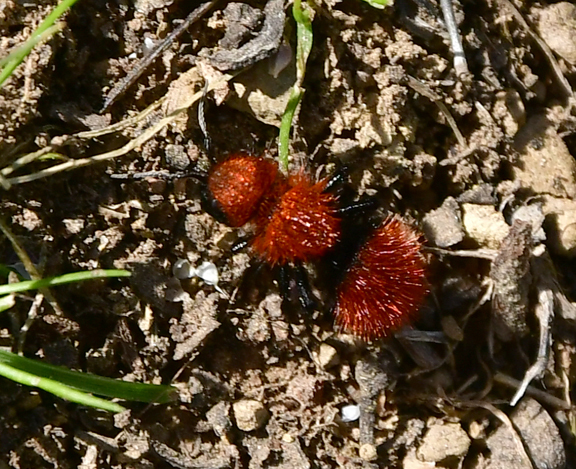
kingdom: Animalia
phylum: Arthropoda
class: Insecta
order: Hymenoptera
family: Mutillidae
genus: Dasymutilla
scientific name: Dasymutilla
